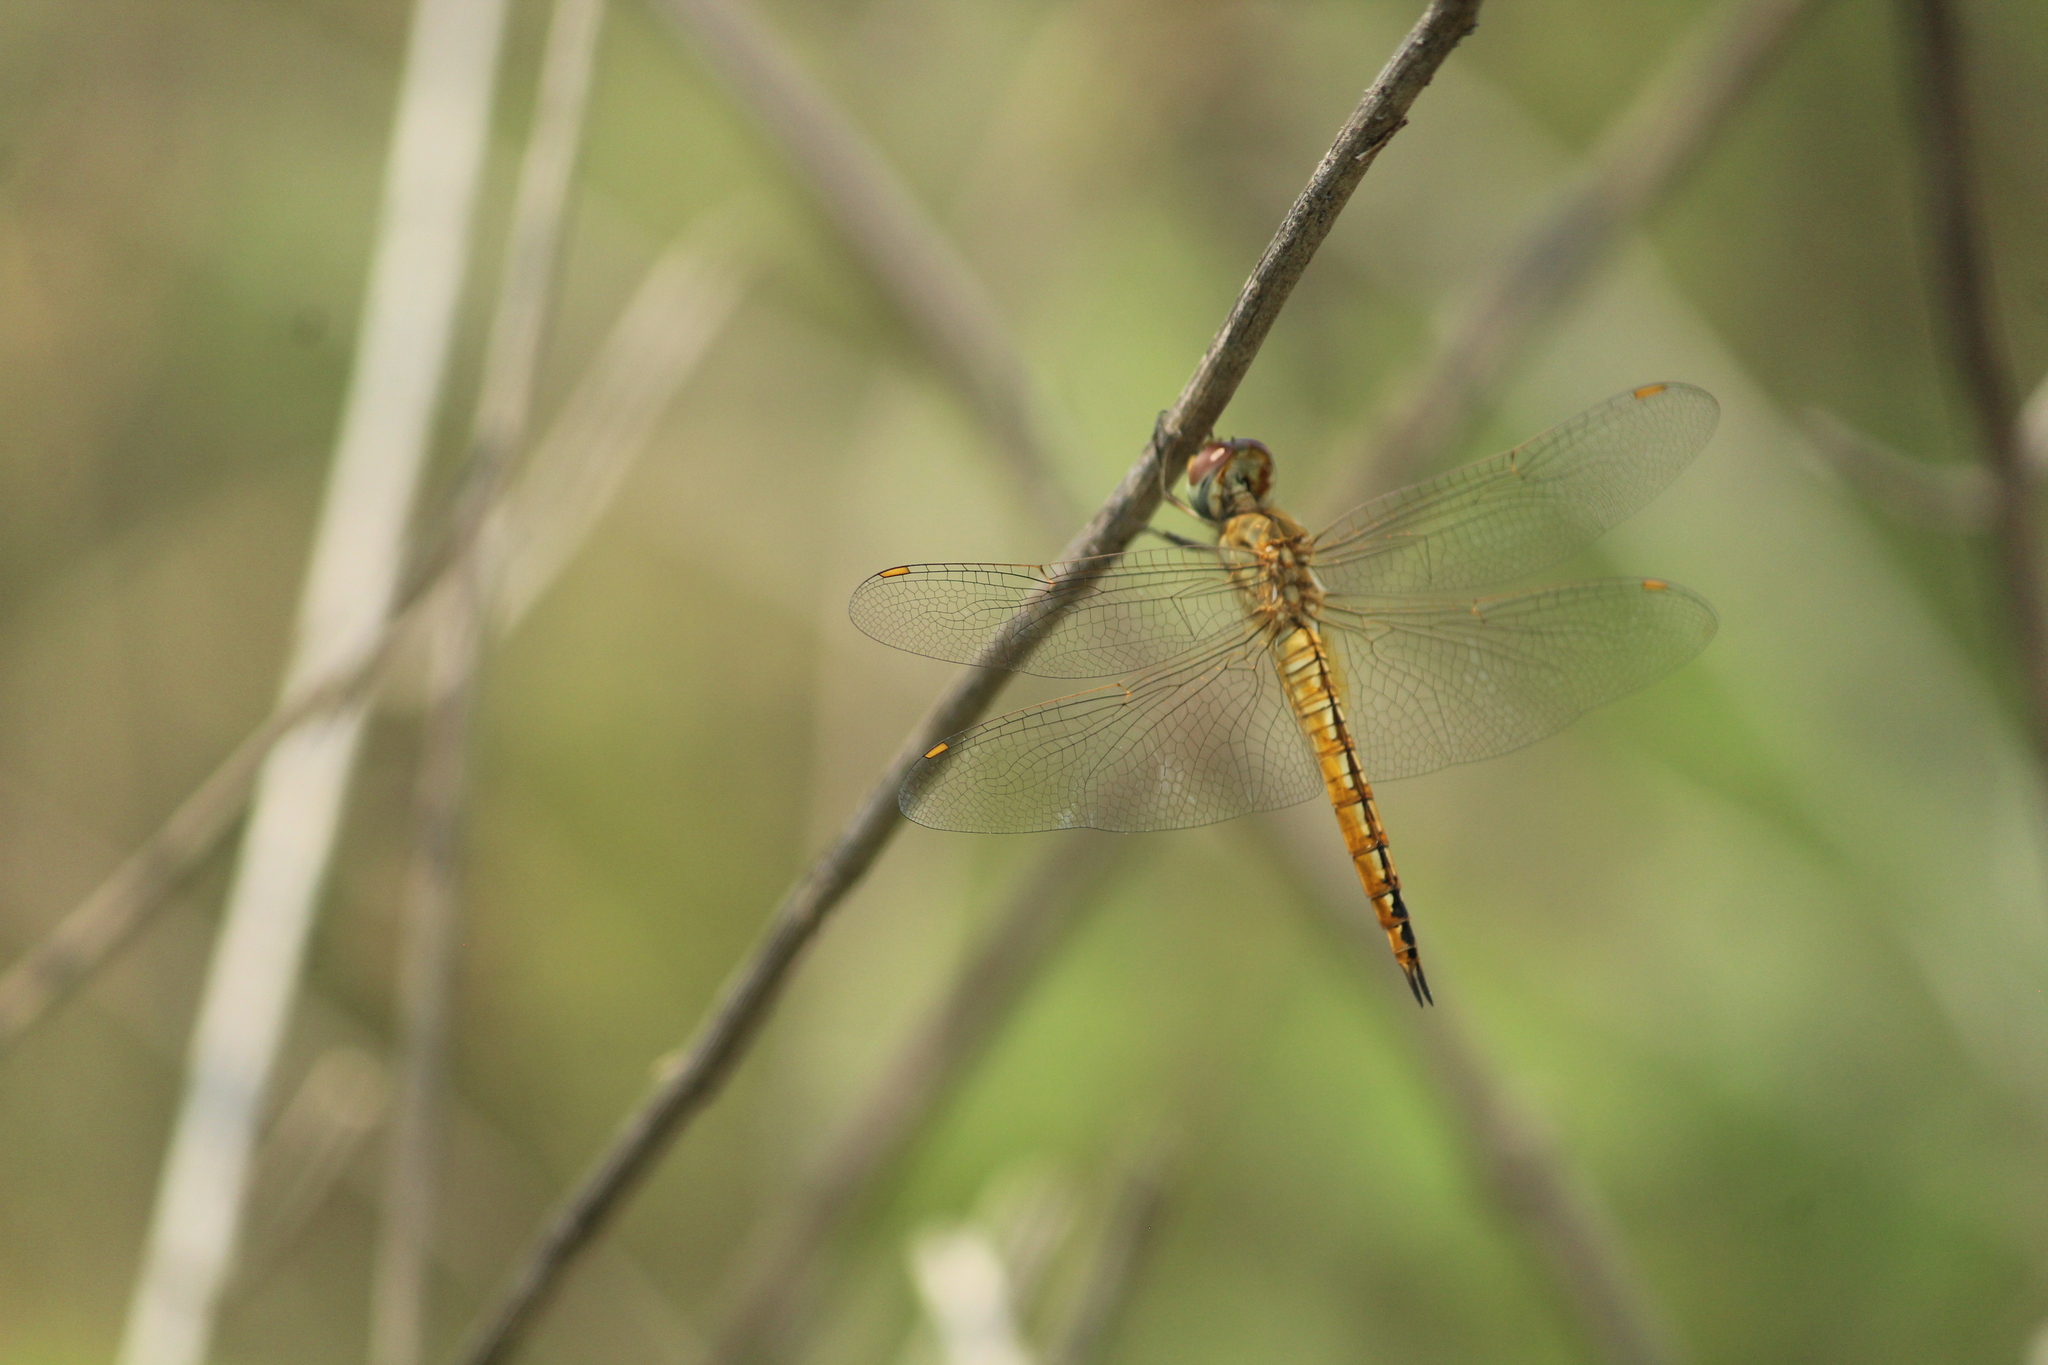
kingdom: Animalia
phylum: Arthropoda
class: Insecta
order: Odonata
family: Libellulidae
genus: Pantala
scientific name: Pantala flavescens
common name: Wandering glider
